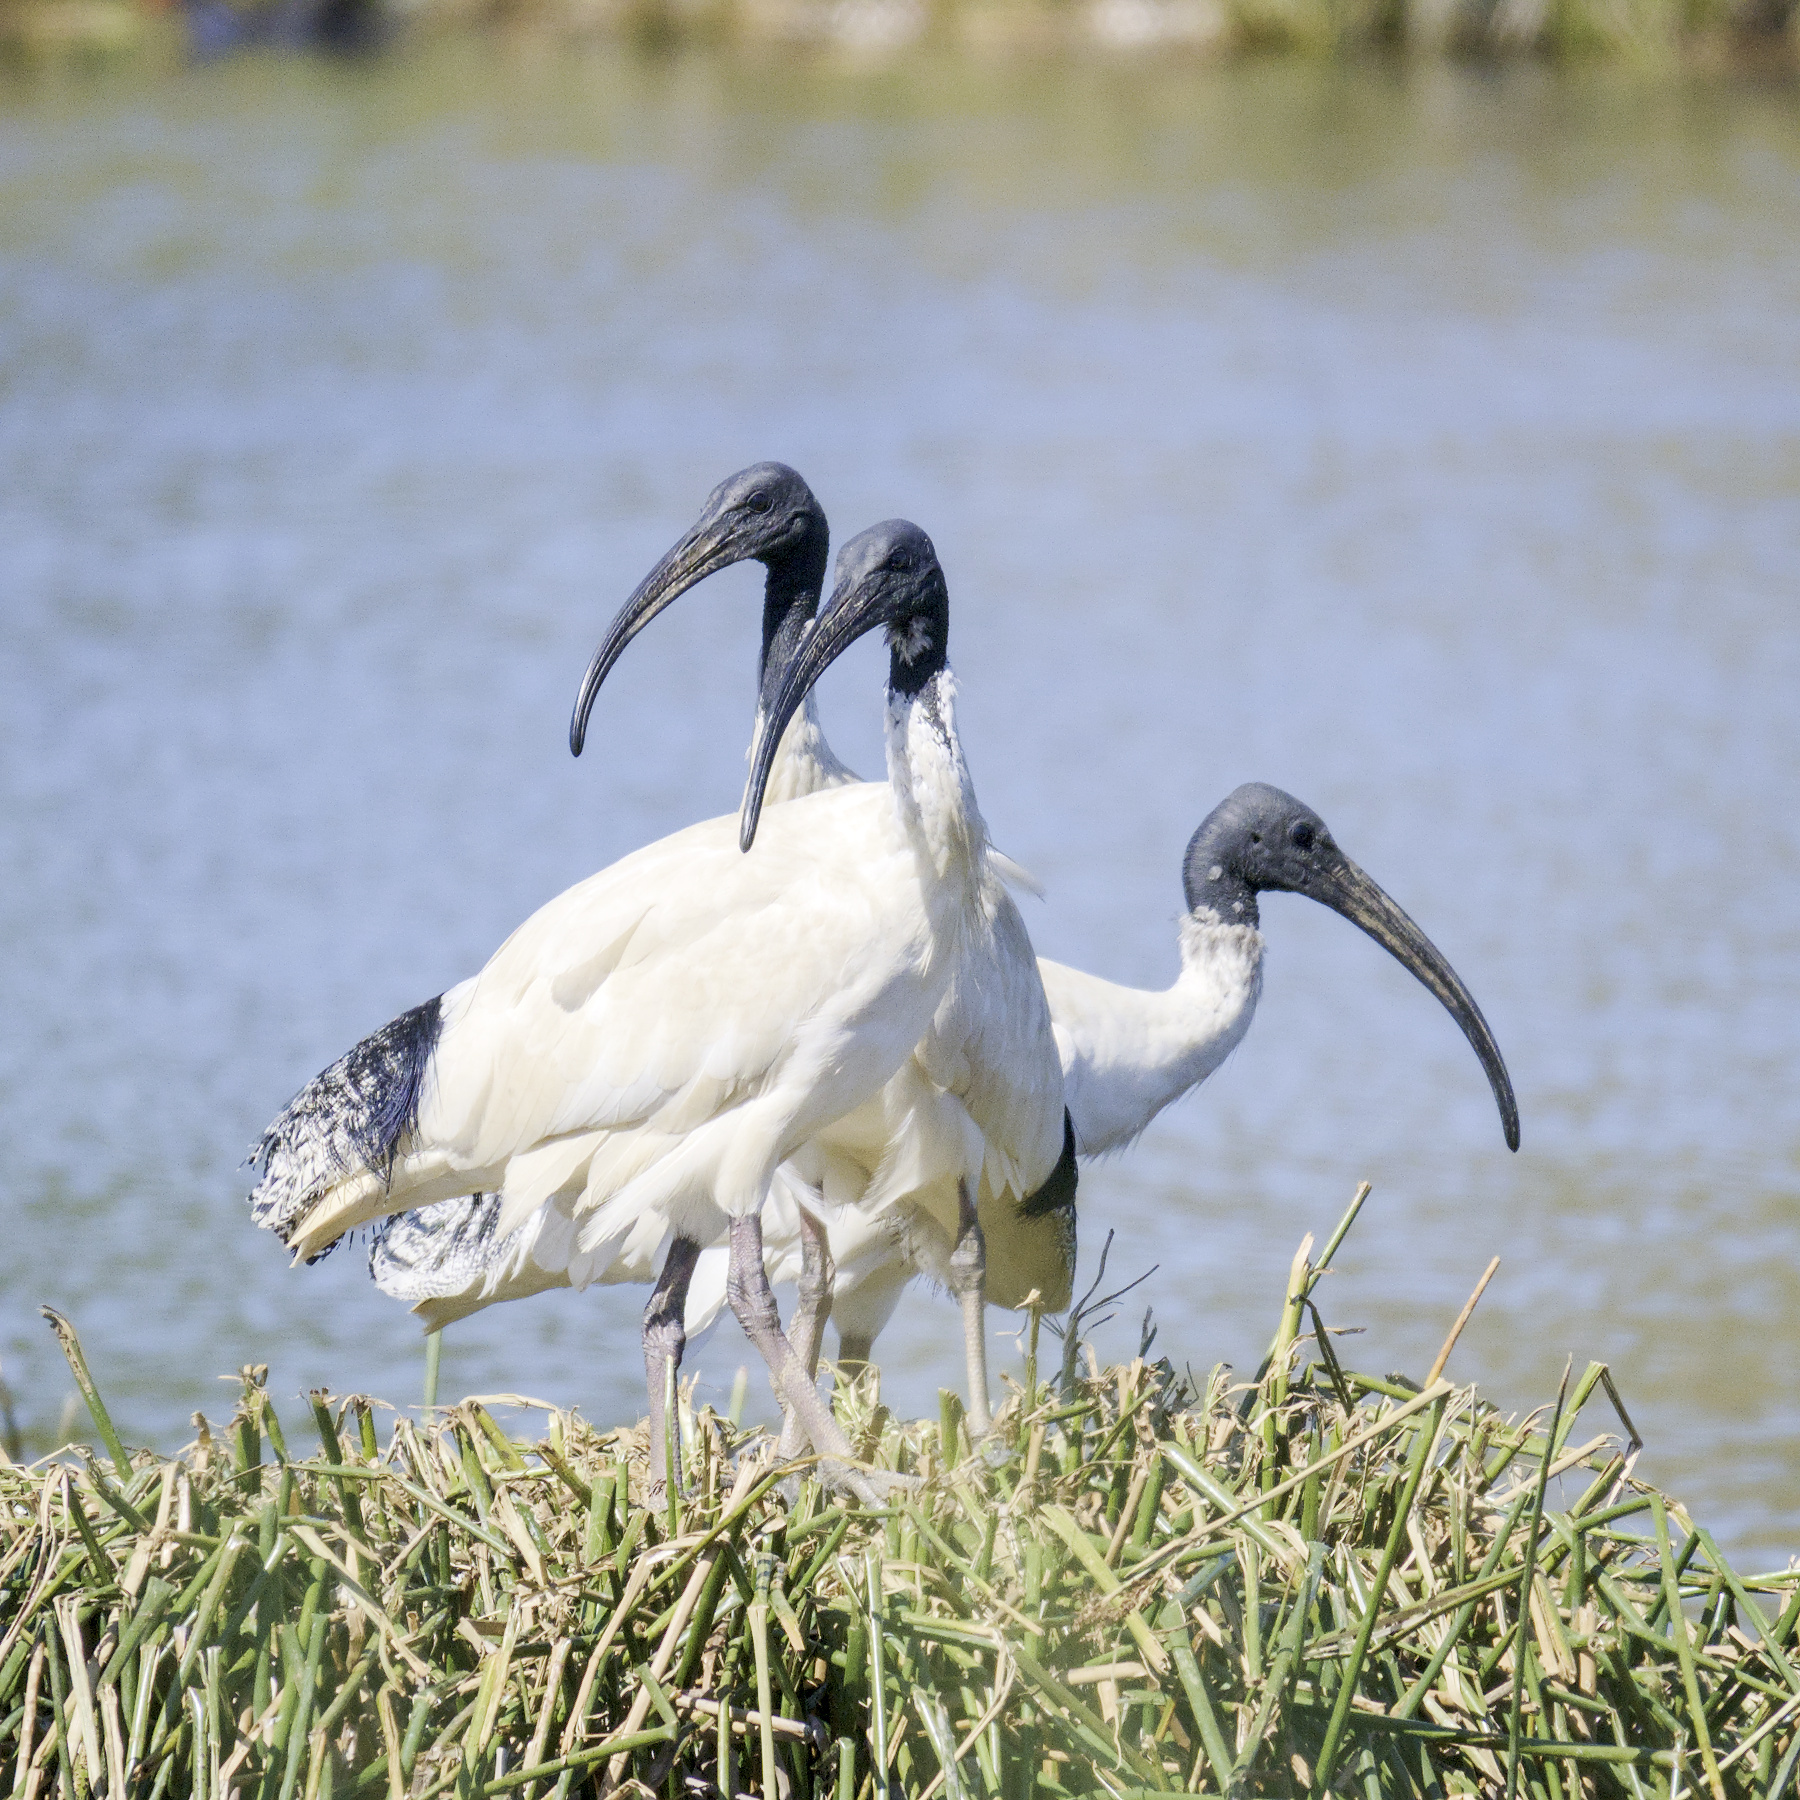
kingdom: Animalia
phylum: Chordata
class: Aves
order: Pelecaniformes
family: Threskiornithidae
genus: Threskiornis
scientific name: Threskiornis molucca
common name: Australian white ibis
